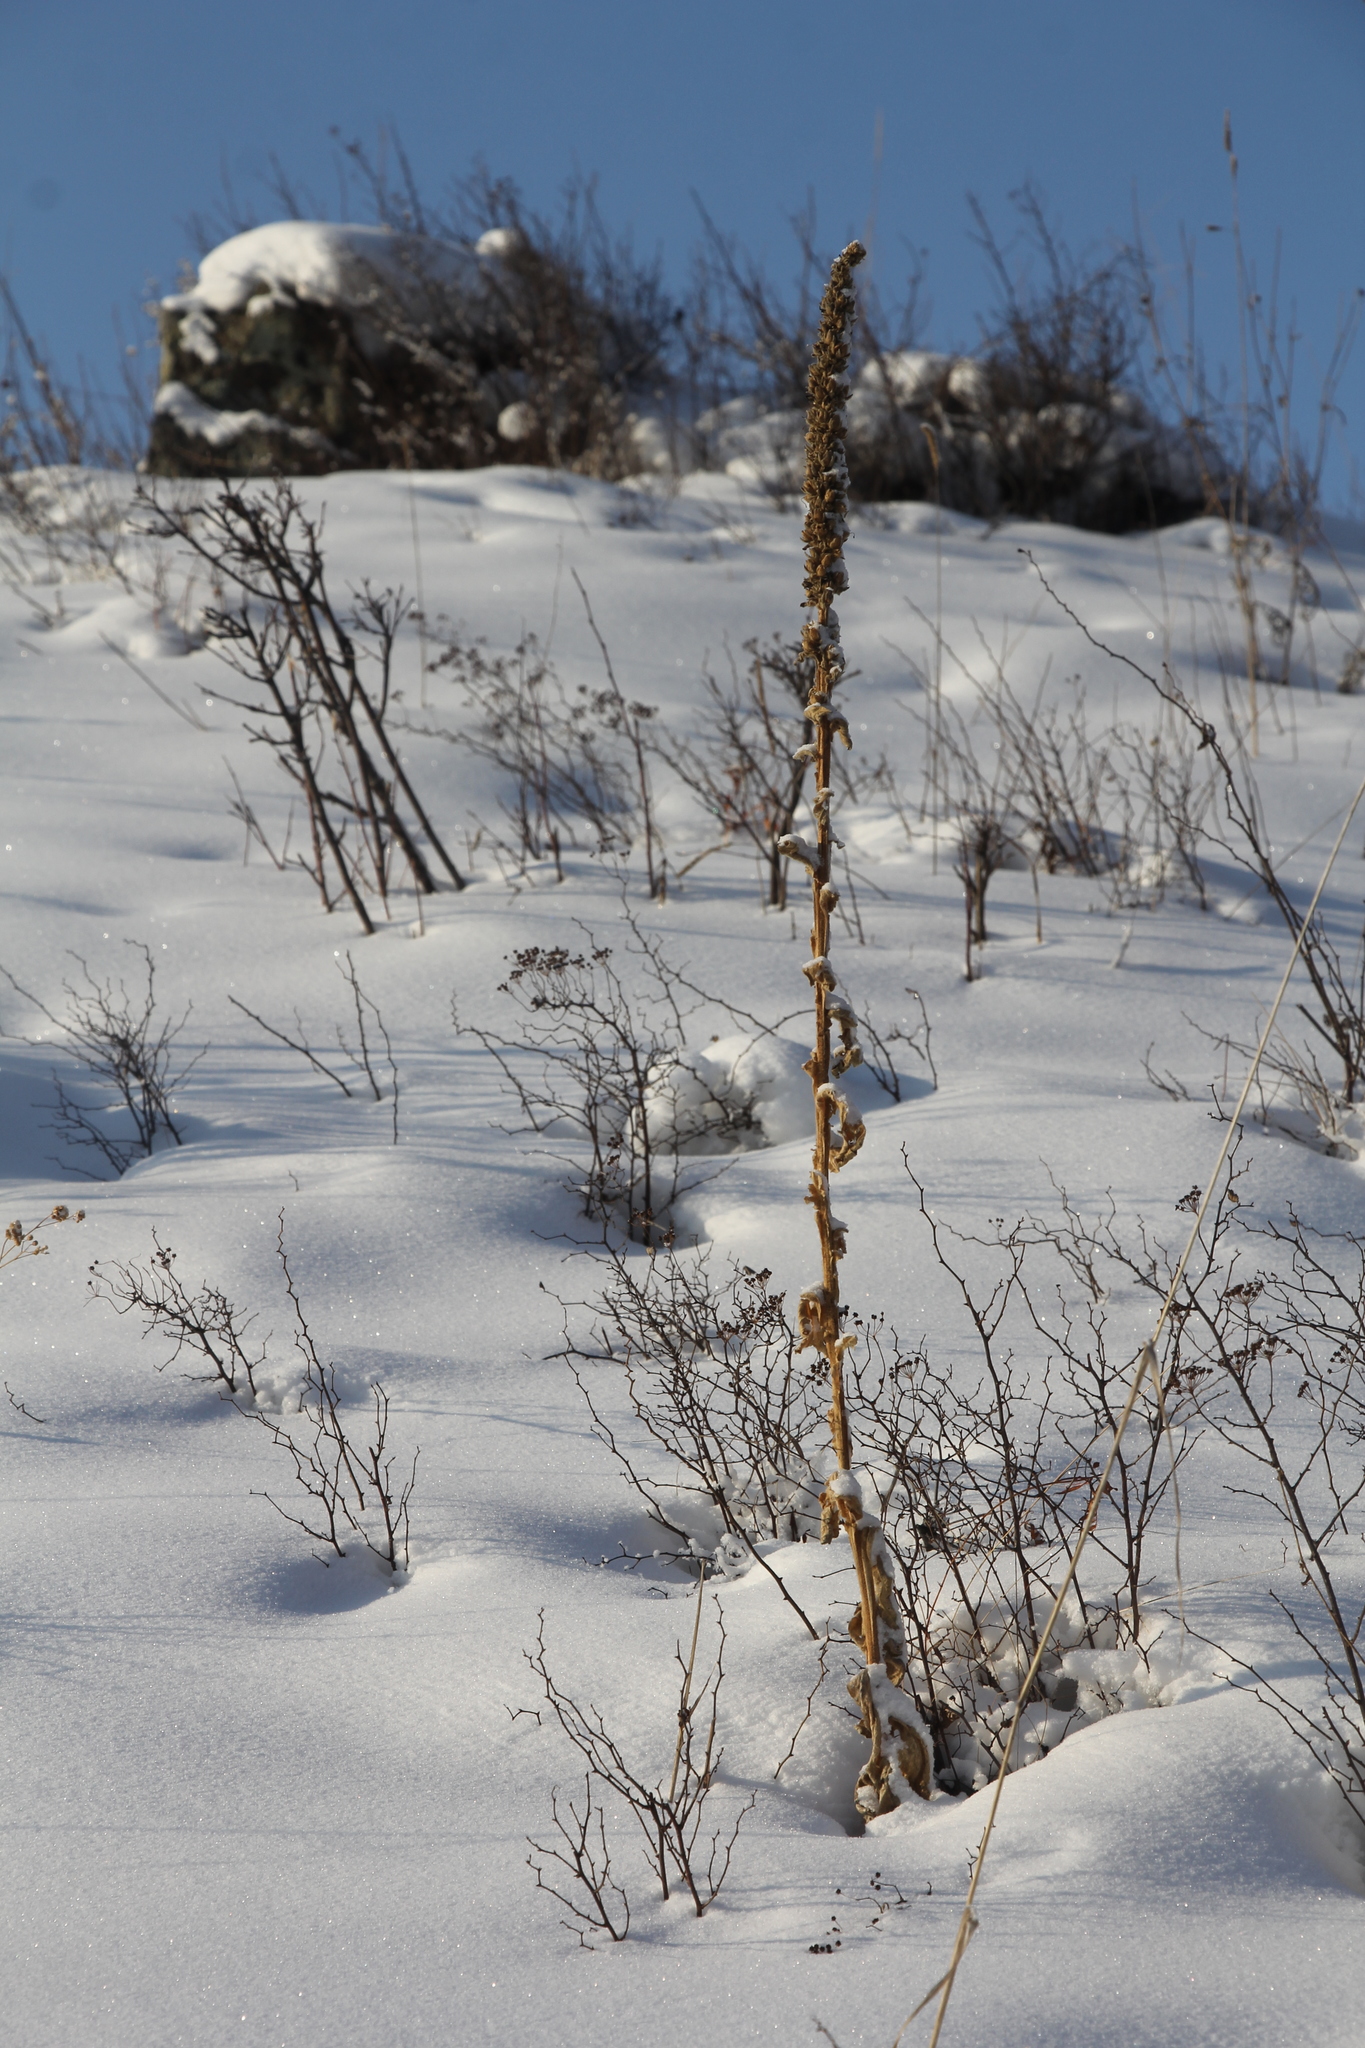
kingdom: Plantae
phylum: Tracheophyta
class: Magnoliopsida
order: Lamiales
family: Scrophulariaceae
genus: Verbascum
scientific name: Verbascum thapsus
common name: Common mullein
